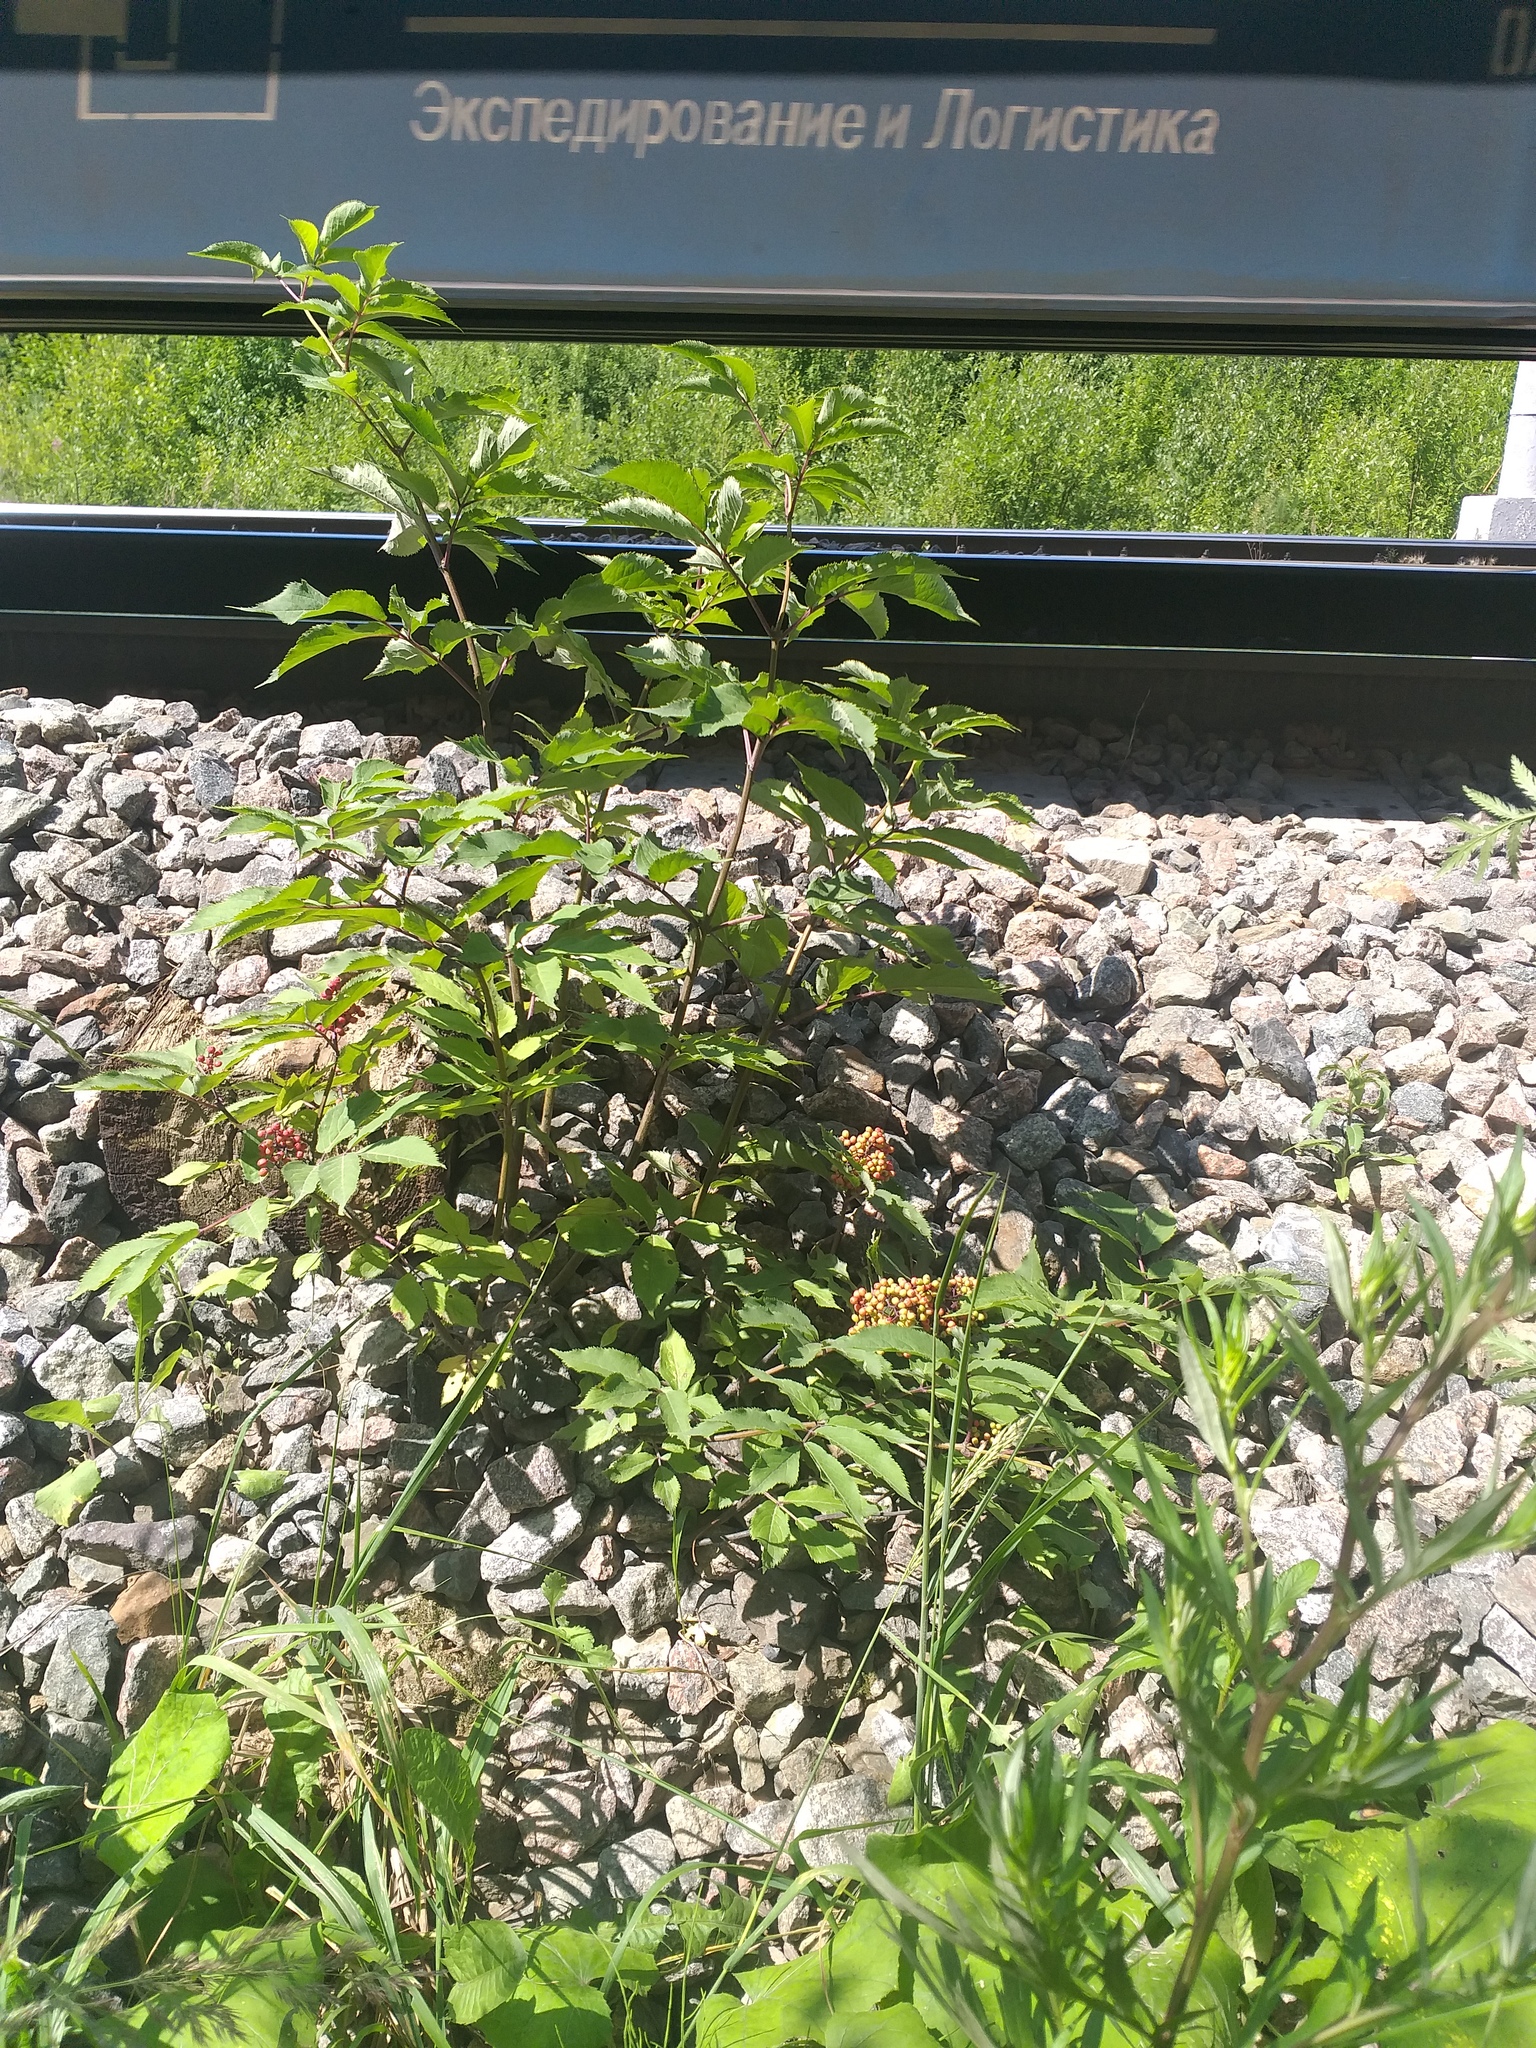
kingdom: Plantae
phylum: Tracheophyta
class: Magnoliopsida
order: Dipsacales
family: Viburnaceae
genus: Sambucus
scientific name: Sambucus racemosa
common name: Red-berried elder
